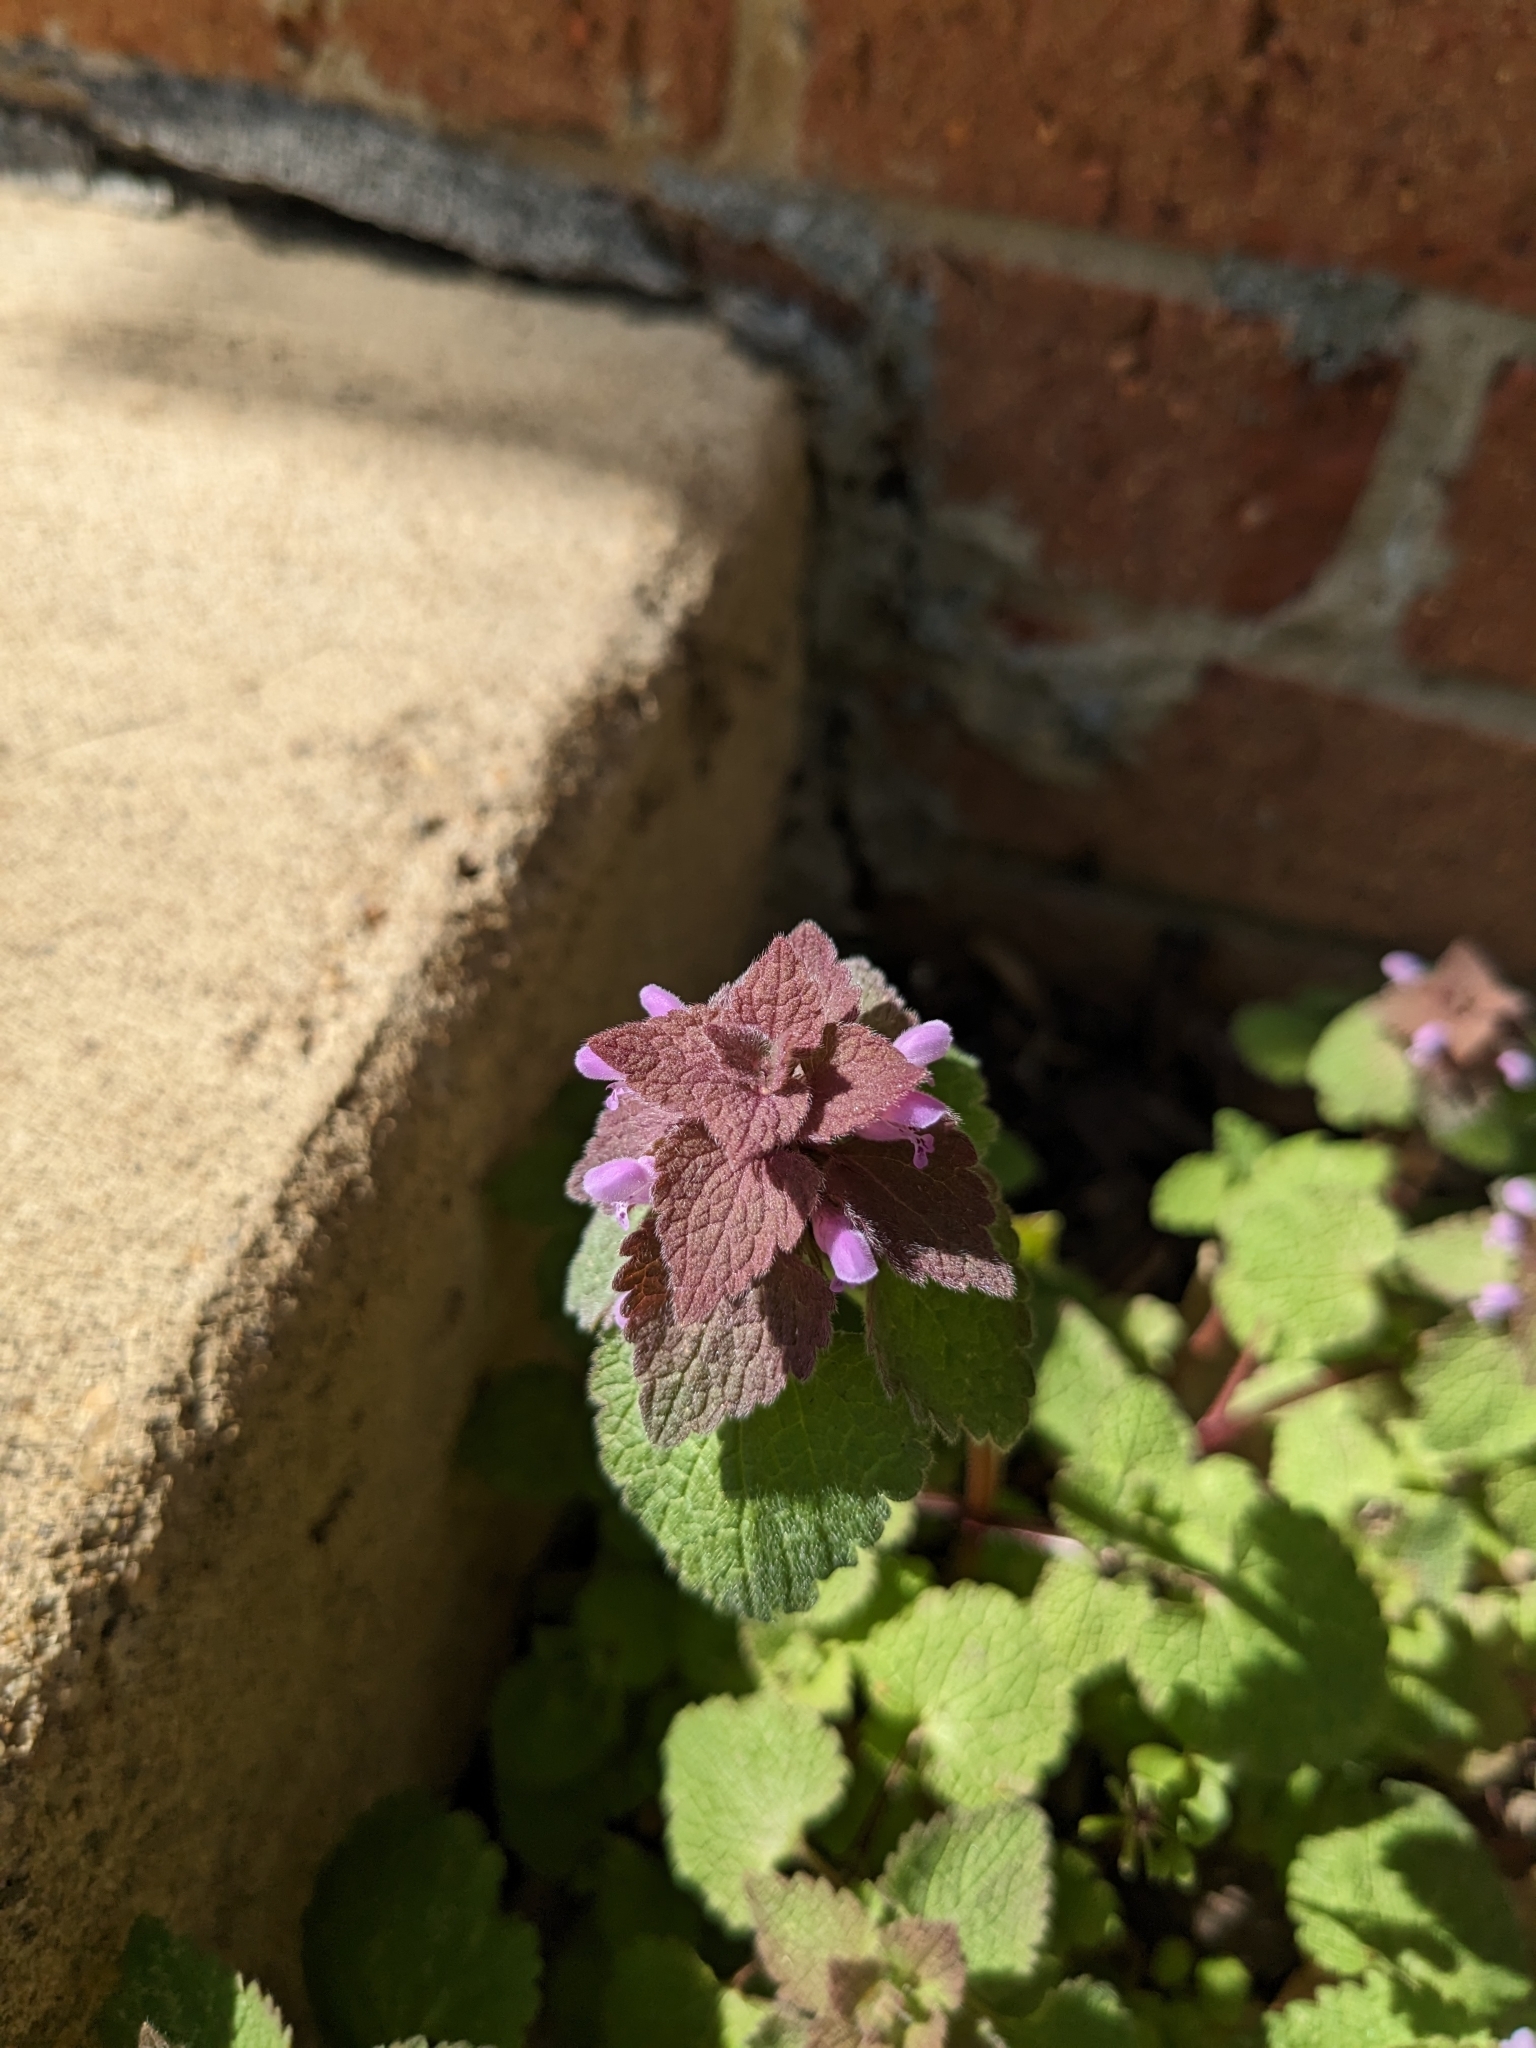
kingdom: Plantae
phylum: Tracheophyta
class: Magnoliopsida
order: Lamiales
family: Lamiaceae
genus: Lamium
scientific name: Lamium purpureum
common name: Red dead-nettle
